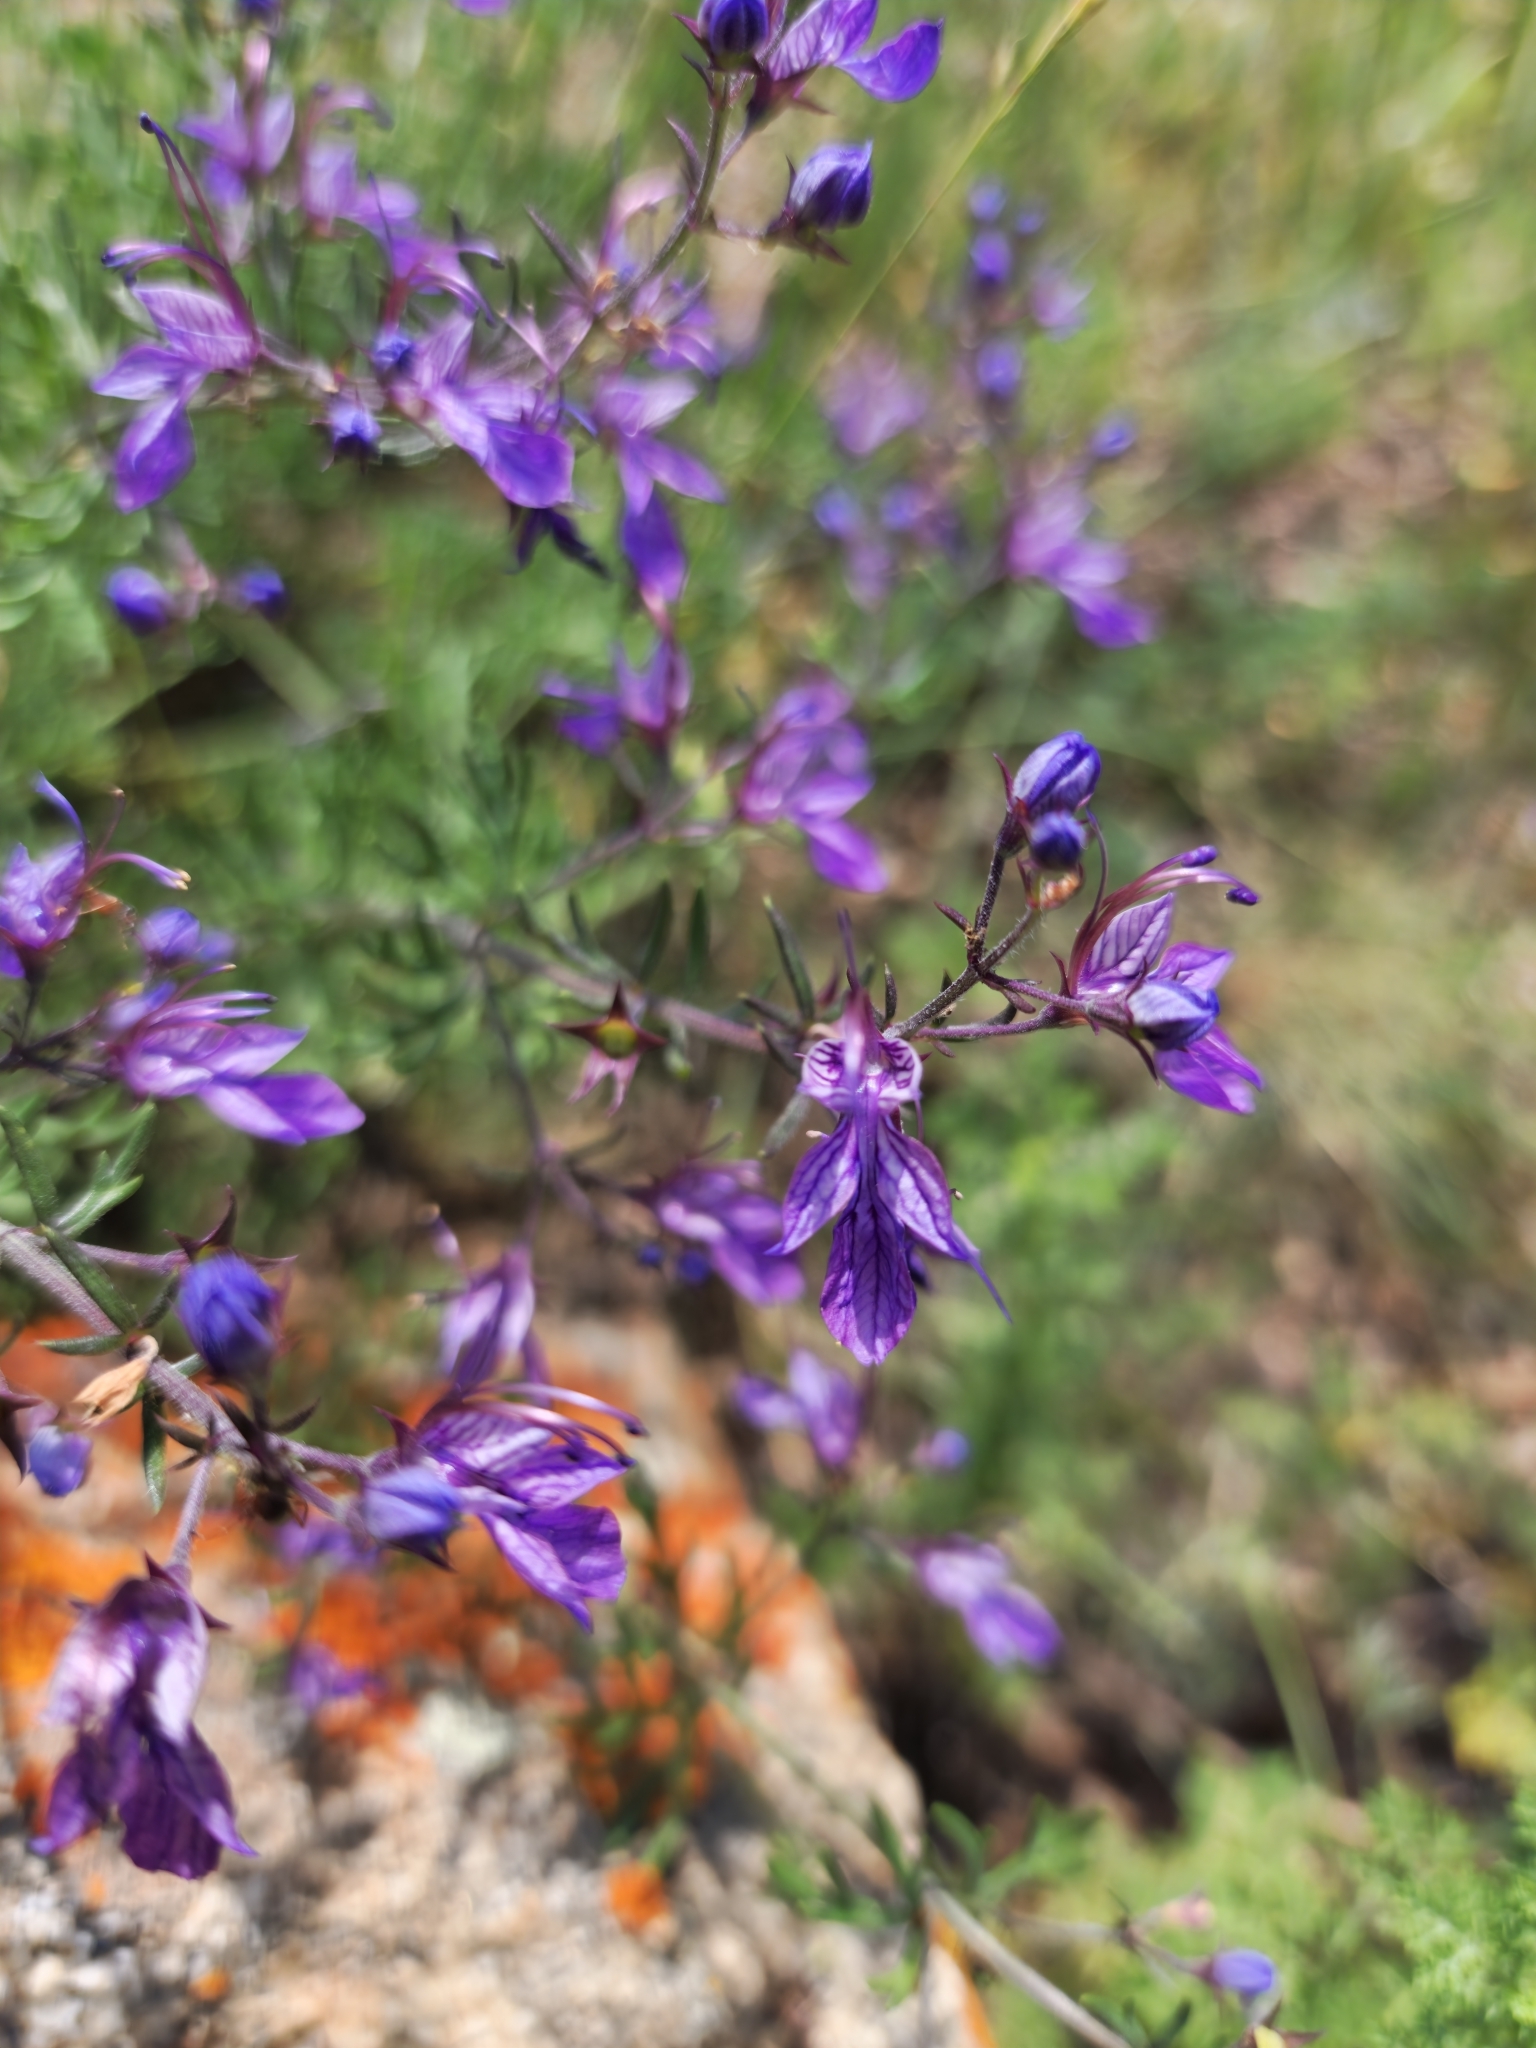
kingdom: Plantae
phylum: Tracheophyta
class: Magnoliopsida
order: Lamiales
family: Lamiaceae
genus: Teucrium
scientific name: Teucrium orientale
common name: Oriental germander
